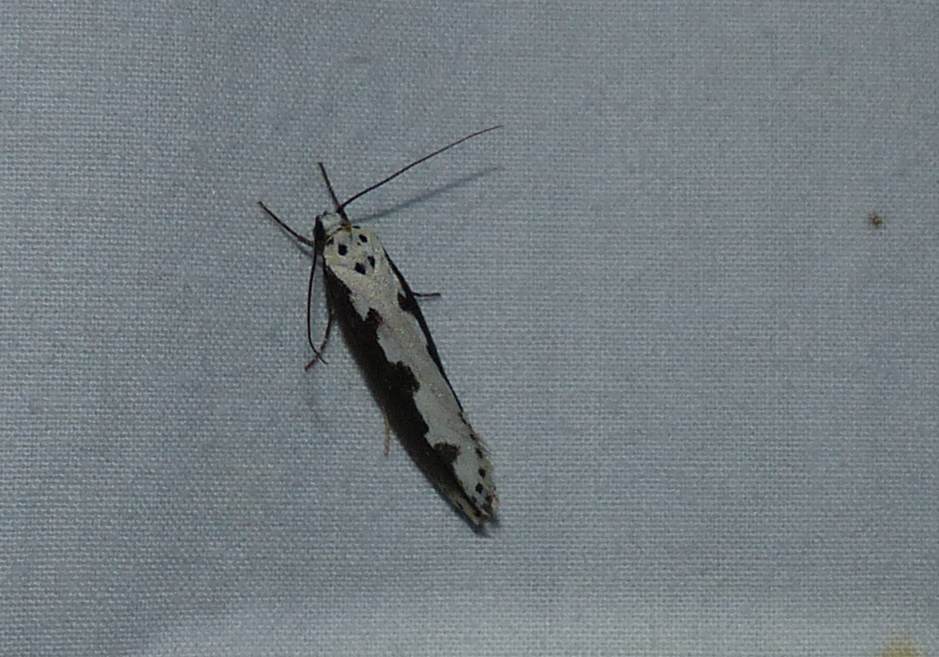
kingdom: Animalia
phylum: Arthropoda
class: Insecta
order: Lepidoptera
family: Ethmiidae
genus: Ethmia
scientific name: Ethmia bipunctella
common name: Bordered ermel
